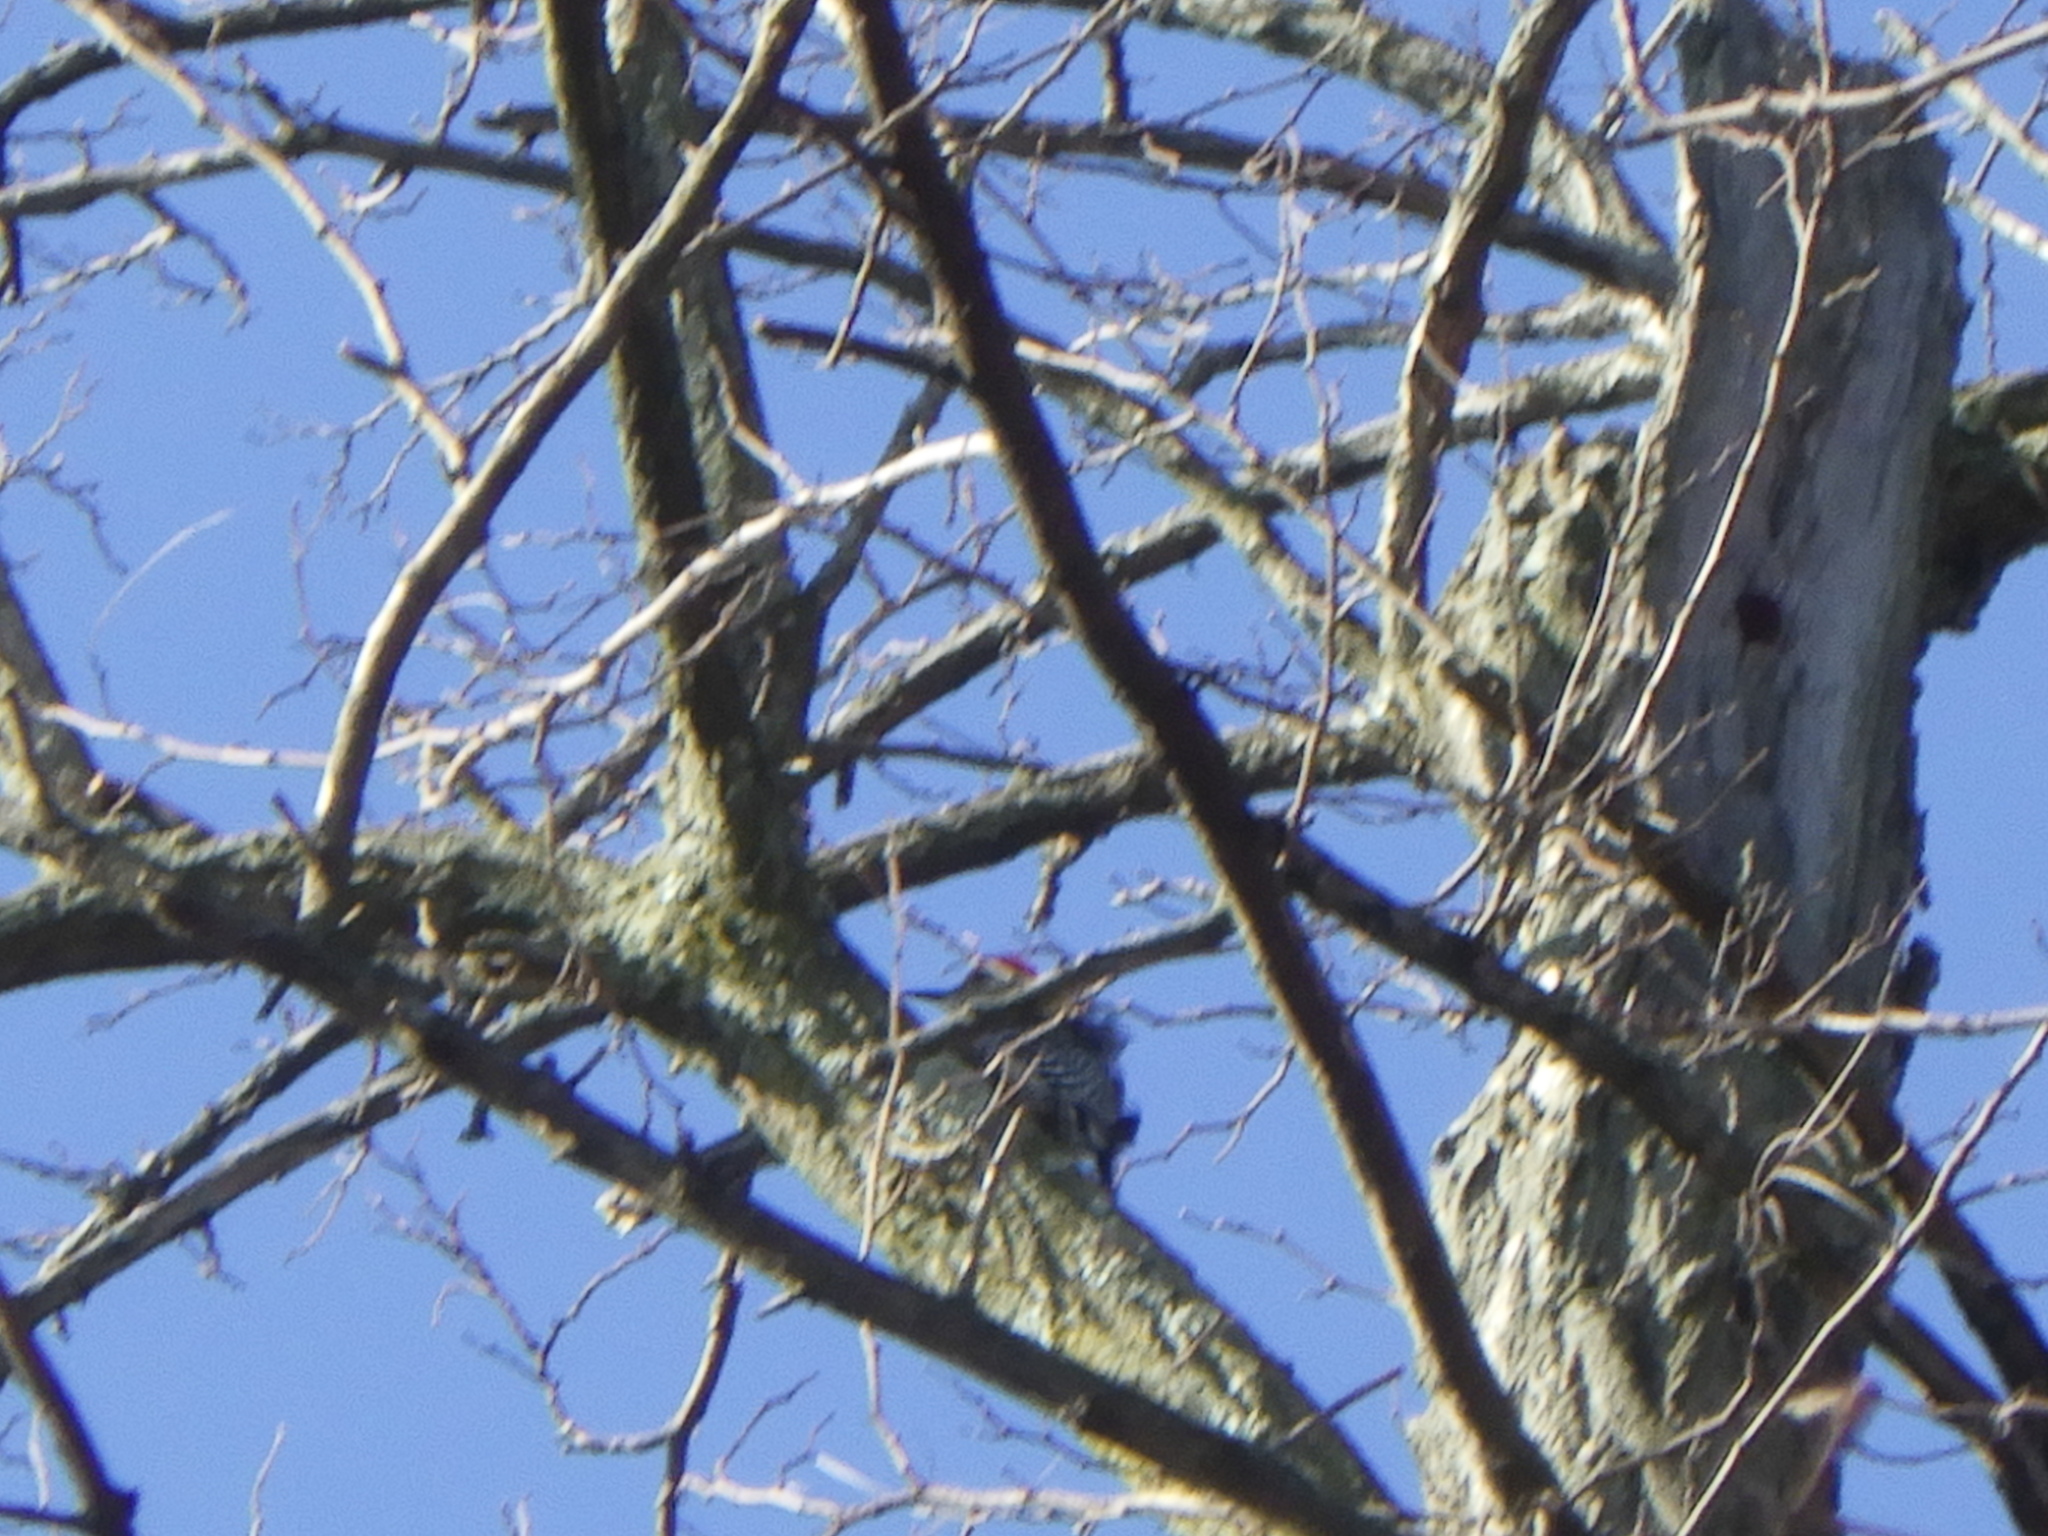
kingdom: Animalia
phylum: Chordata
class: Aves
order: Piciformes
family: Picidae
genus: Melanerpes
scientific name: Melanerpes carolinus
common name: Red-bellied woodpecker
